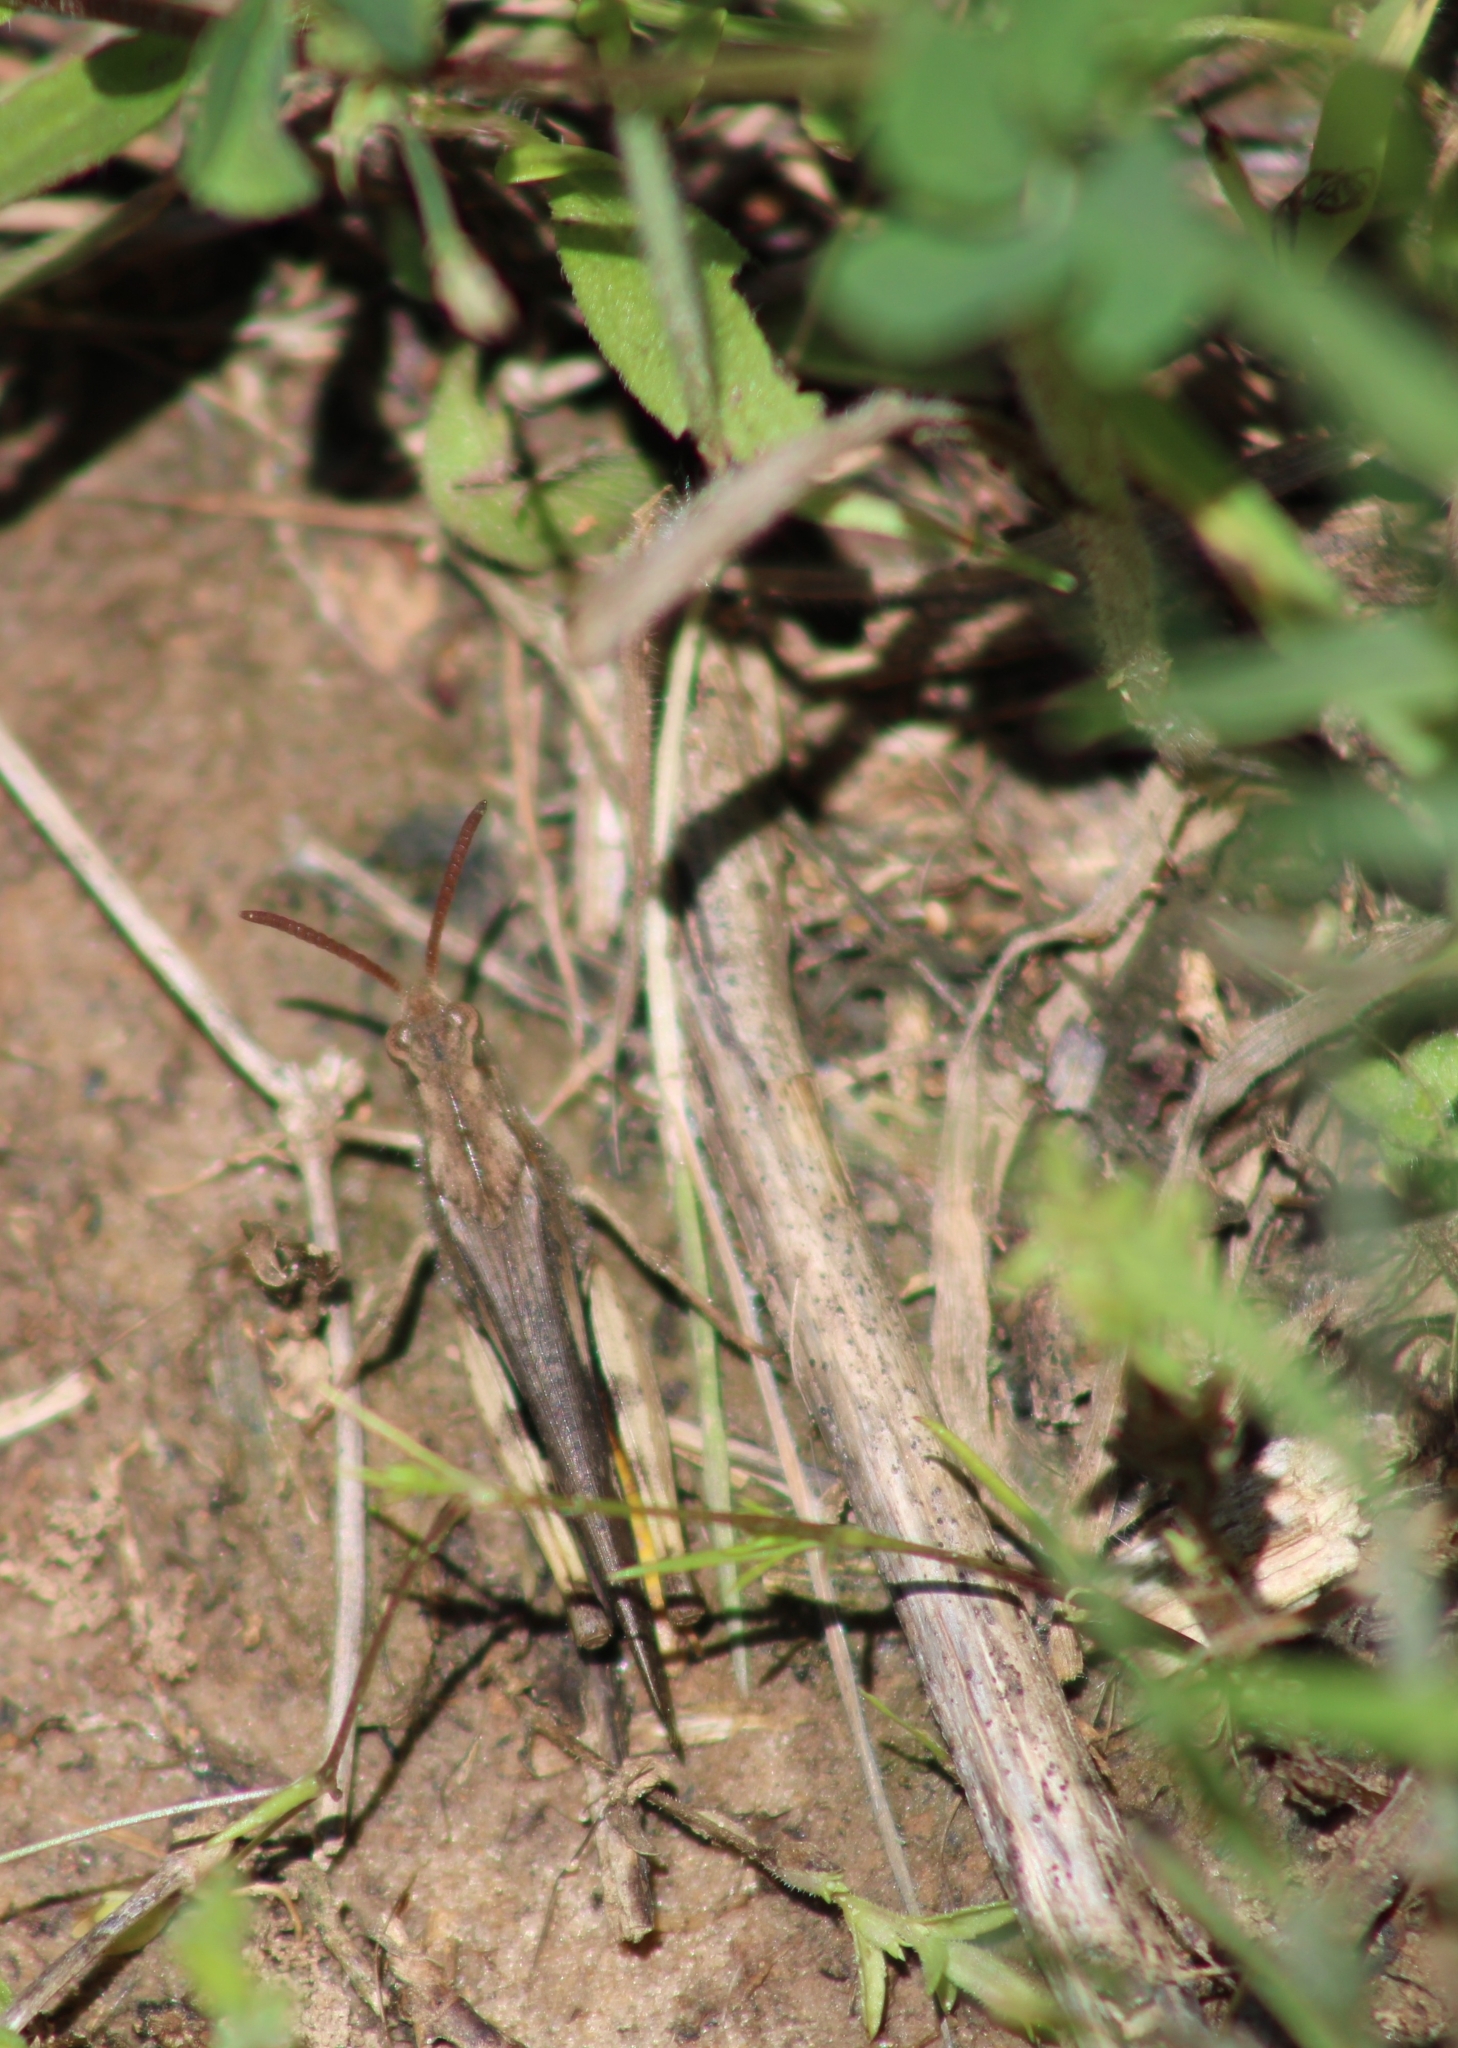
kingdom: Animalia
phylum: Arthropoda
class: Insecta
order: Orthoptera
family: Acrididae
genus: Chortophaga
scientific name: Chortophaga viridifasciata
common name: Green-striped grasshopper
